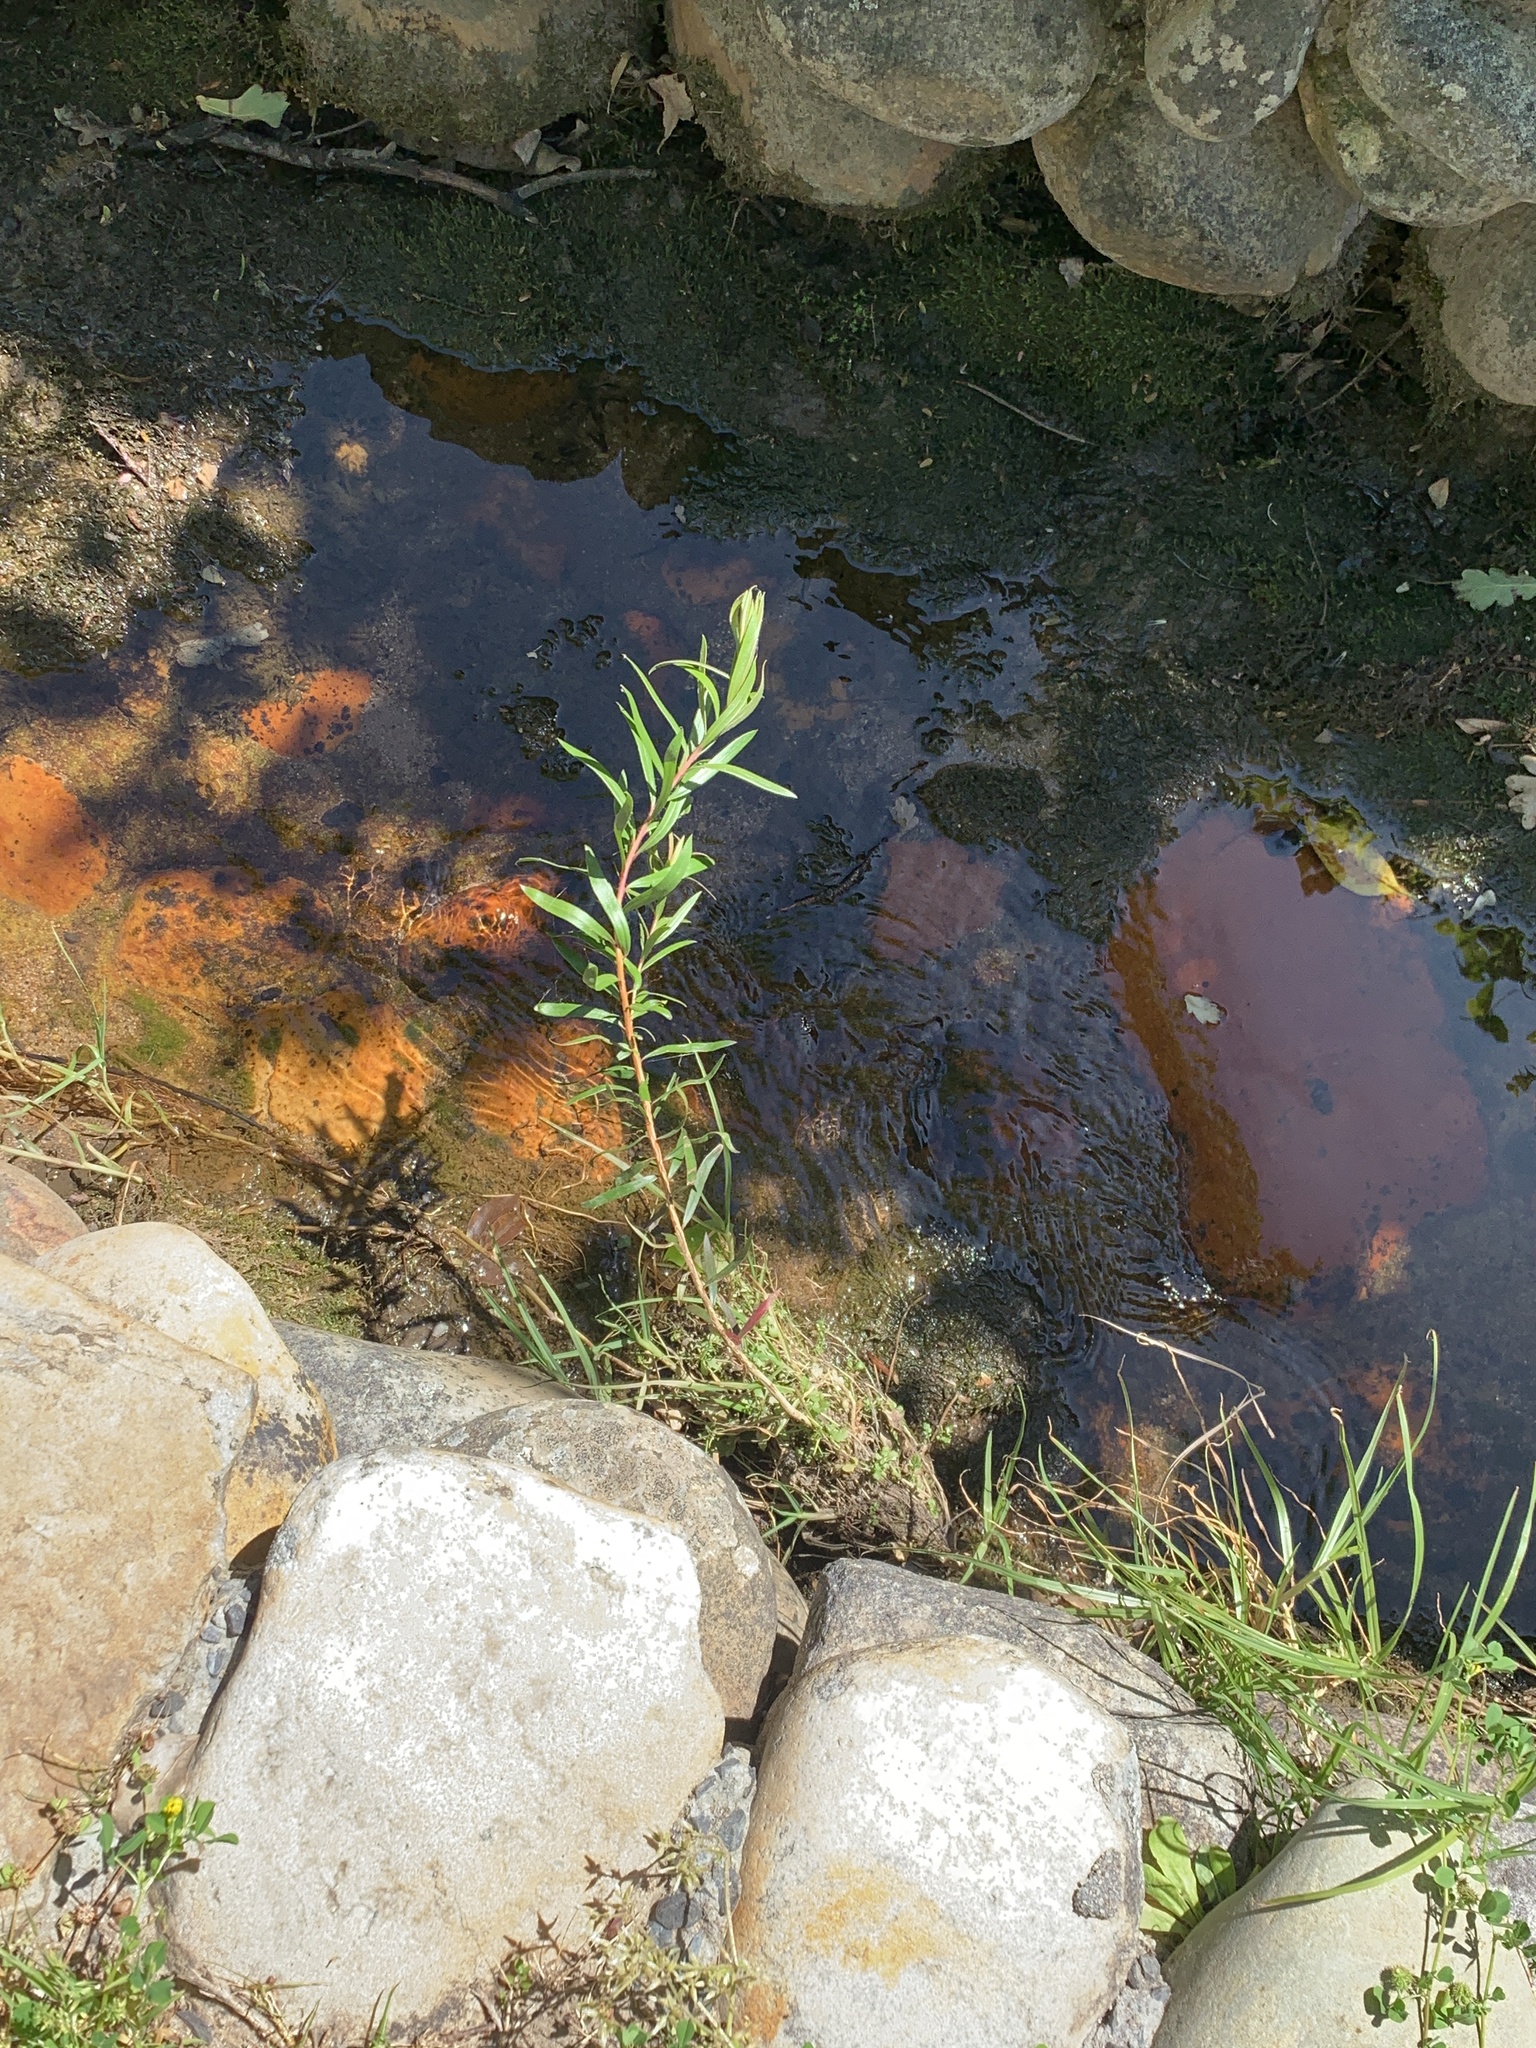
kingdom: Plantae
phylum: Tracheophyta
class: Magnoliopsida
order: Myrtales
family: Myrtaceae
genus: Callistemon
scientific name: Callistemon viminalis
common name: Drooping bottlebrush
